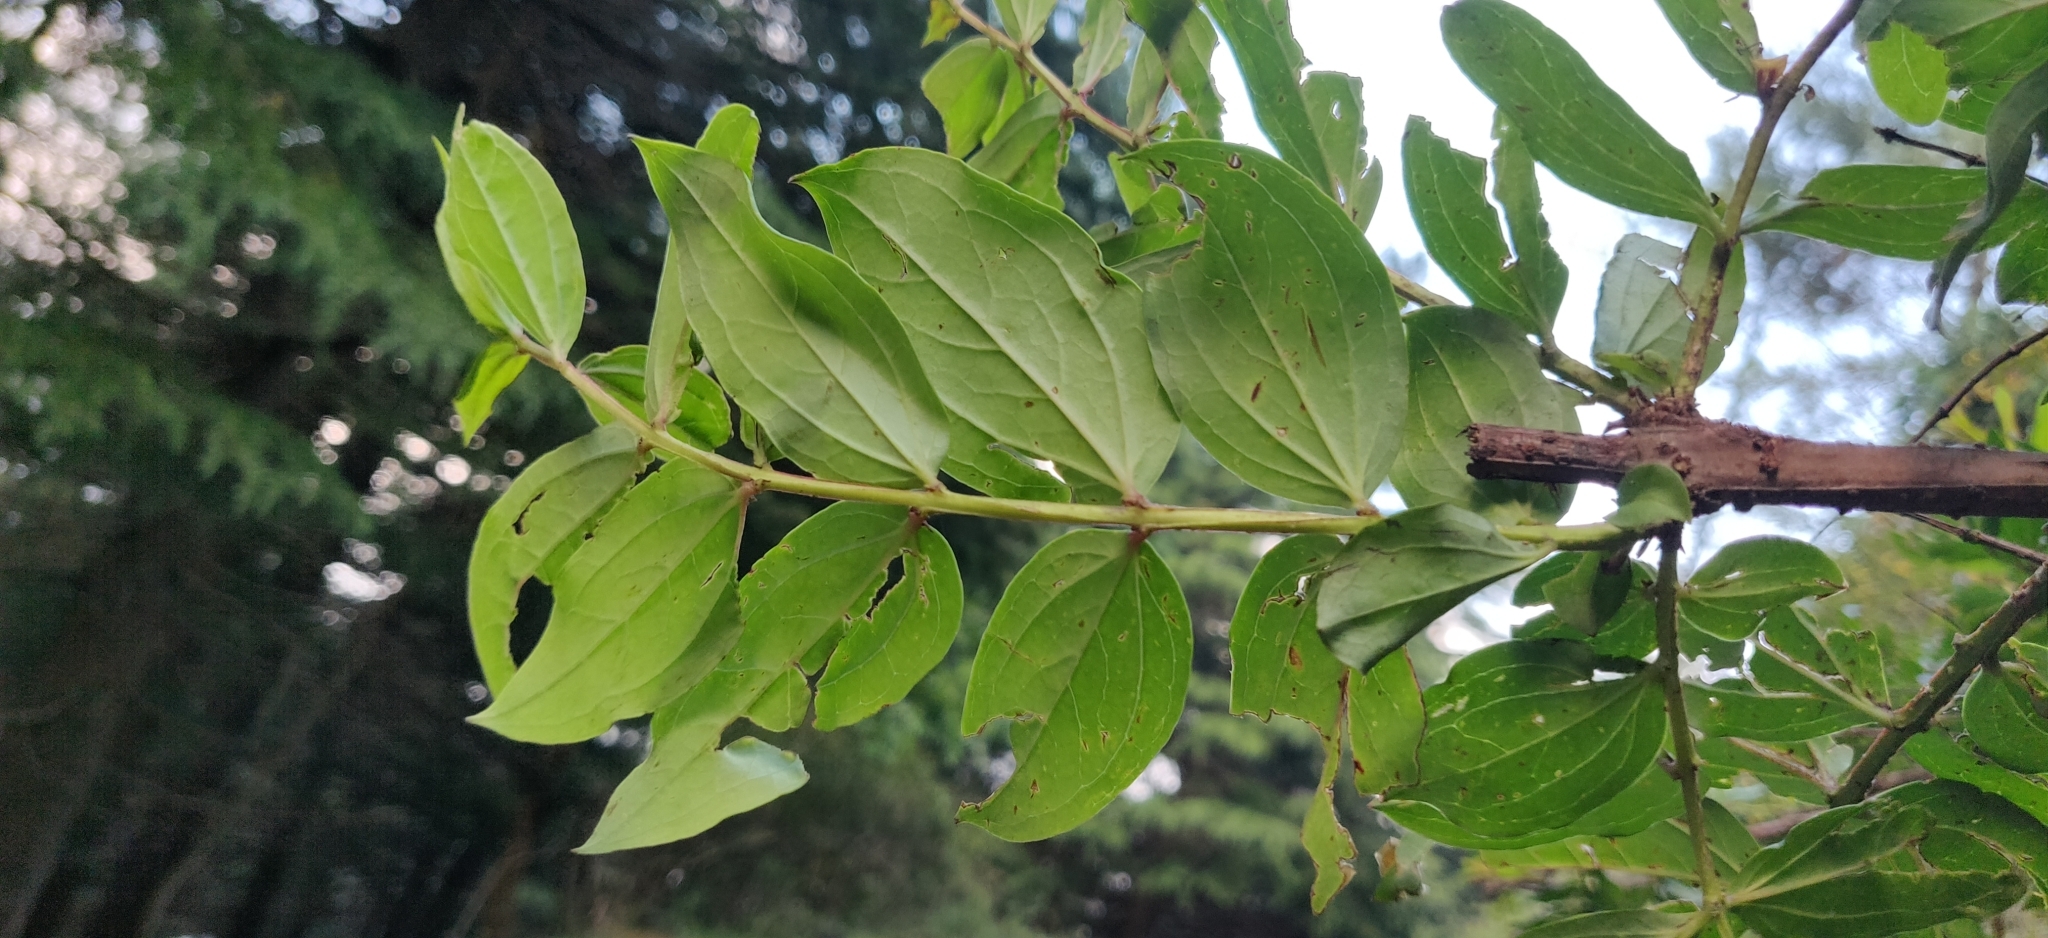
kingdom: Plantae
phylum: Tracheophyta
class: Magnoliopsida
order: Cucurbitales
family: Coriariaceae
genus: Coriaria
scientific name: Coriaria nepalensis
